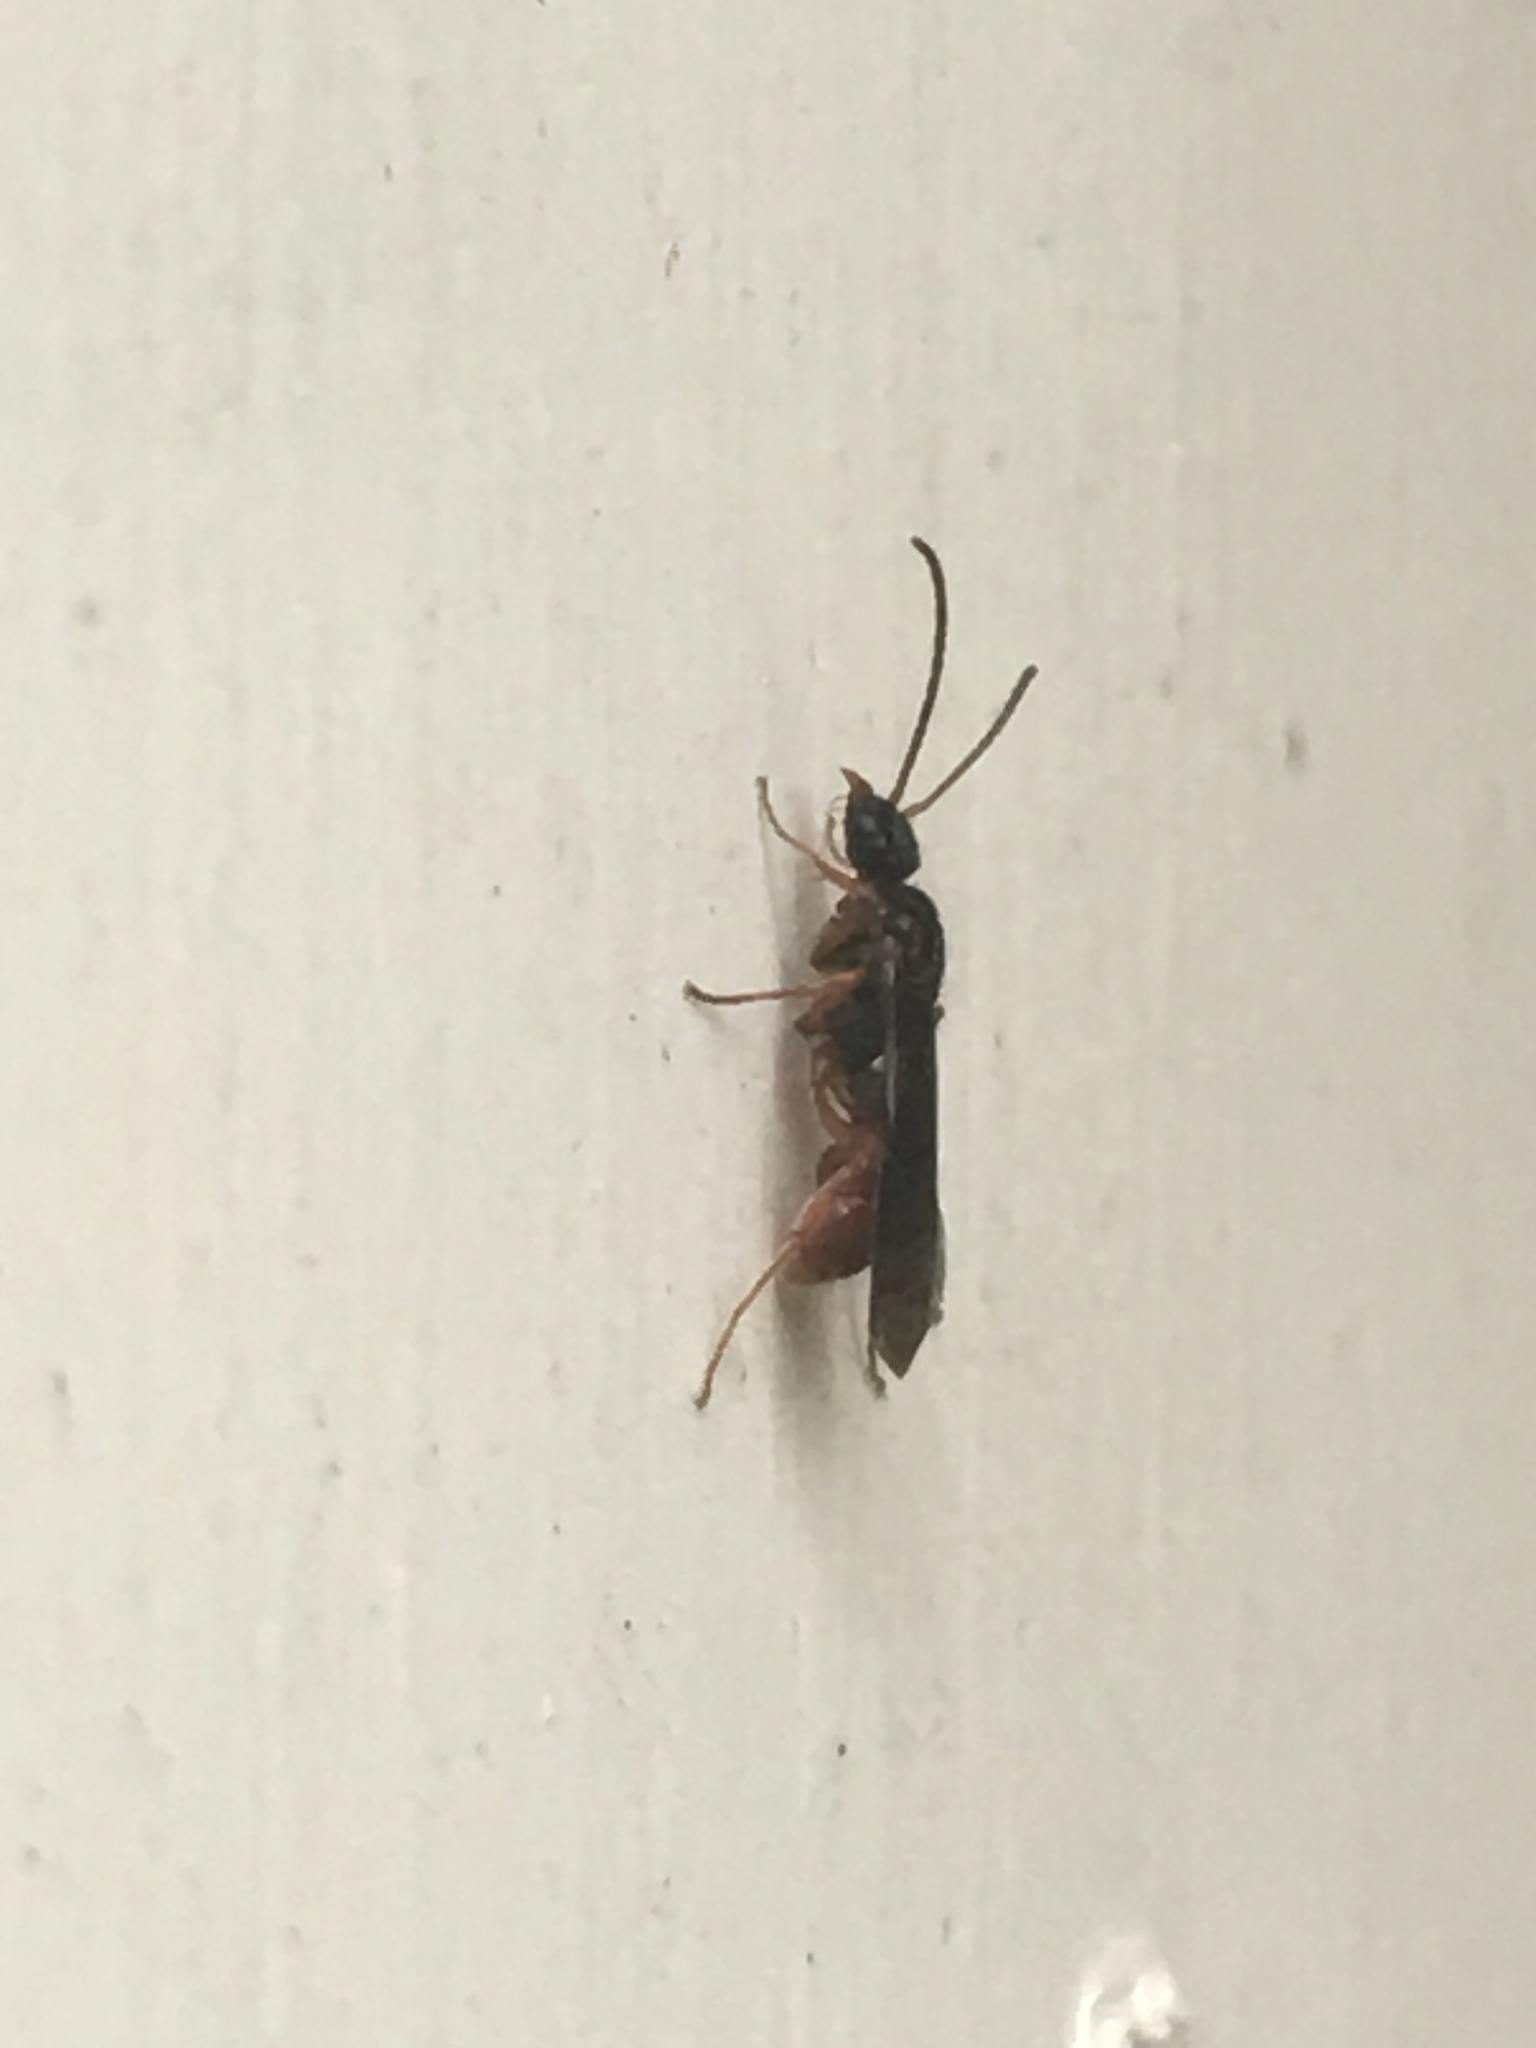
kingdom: Animalia
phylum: Arthropoda
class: Insecta
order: Hymenoptera
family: Formicidae
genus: Gnamptogenys
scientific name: Gnamptogenys triangularis
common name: South american grooved ant
